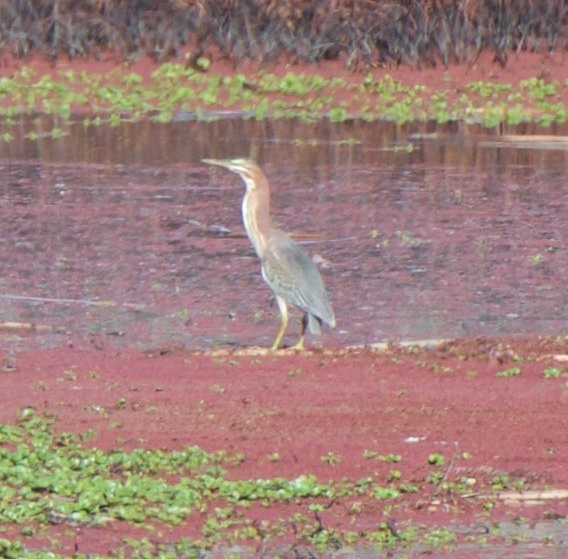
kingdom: Animalia
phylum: Chordata
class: Aves
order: Pelecaniformes
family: Ardeidae
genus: Butorides
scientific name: Butorides virescens
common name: Green heron
